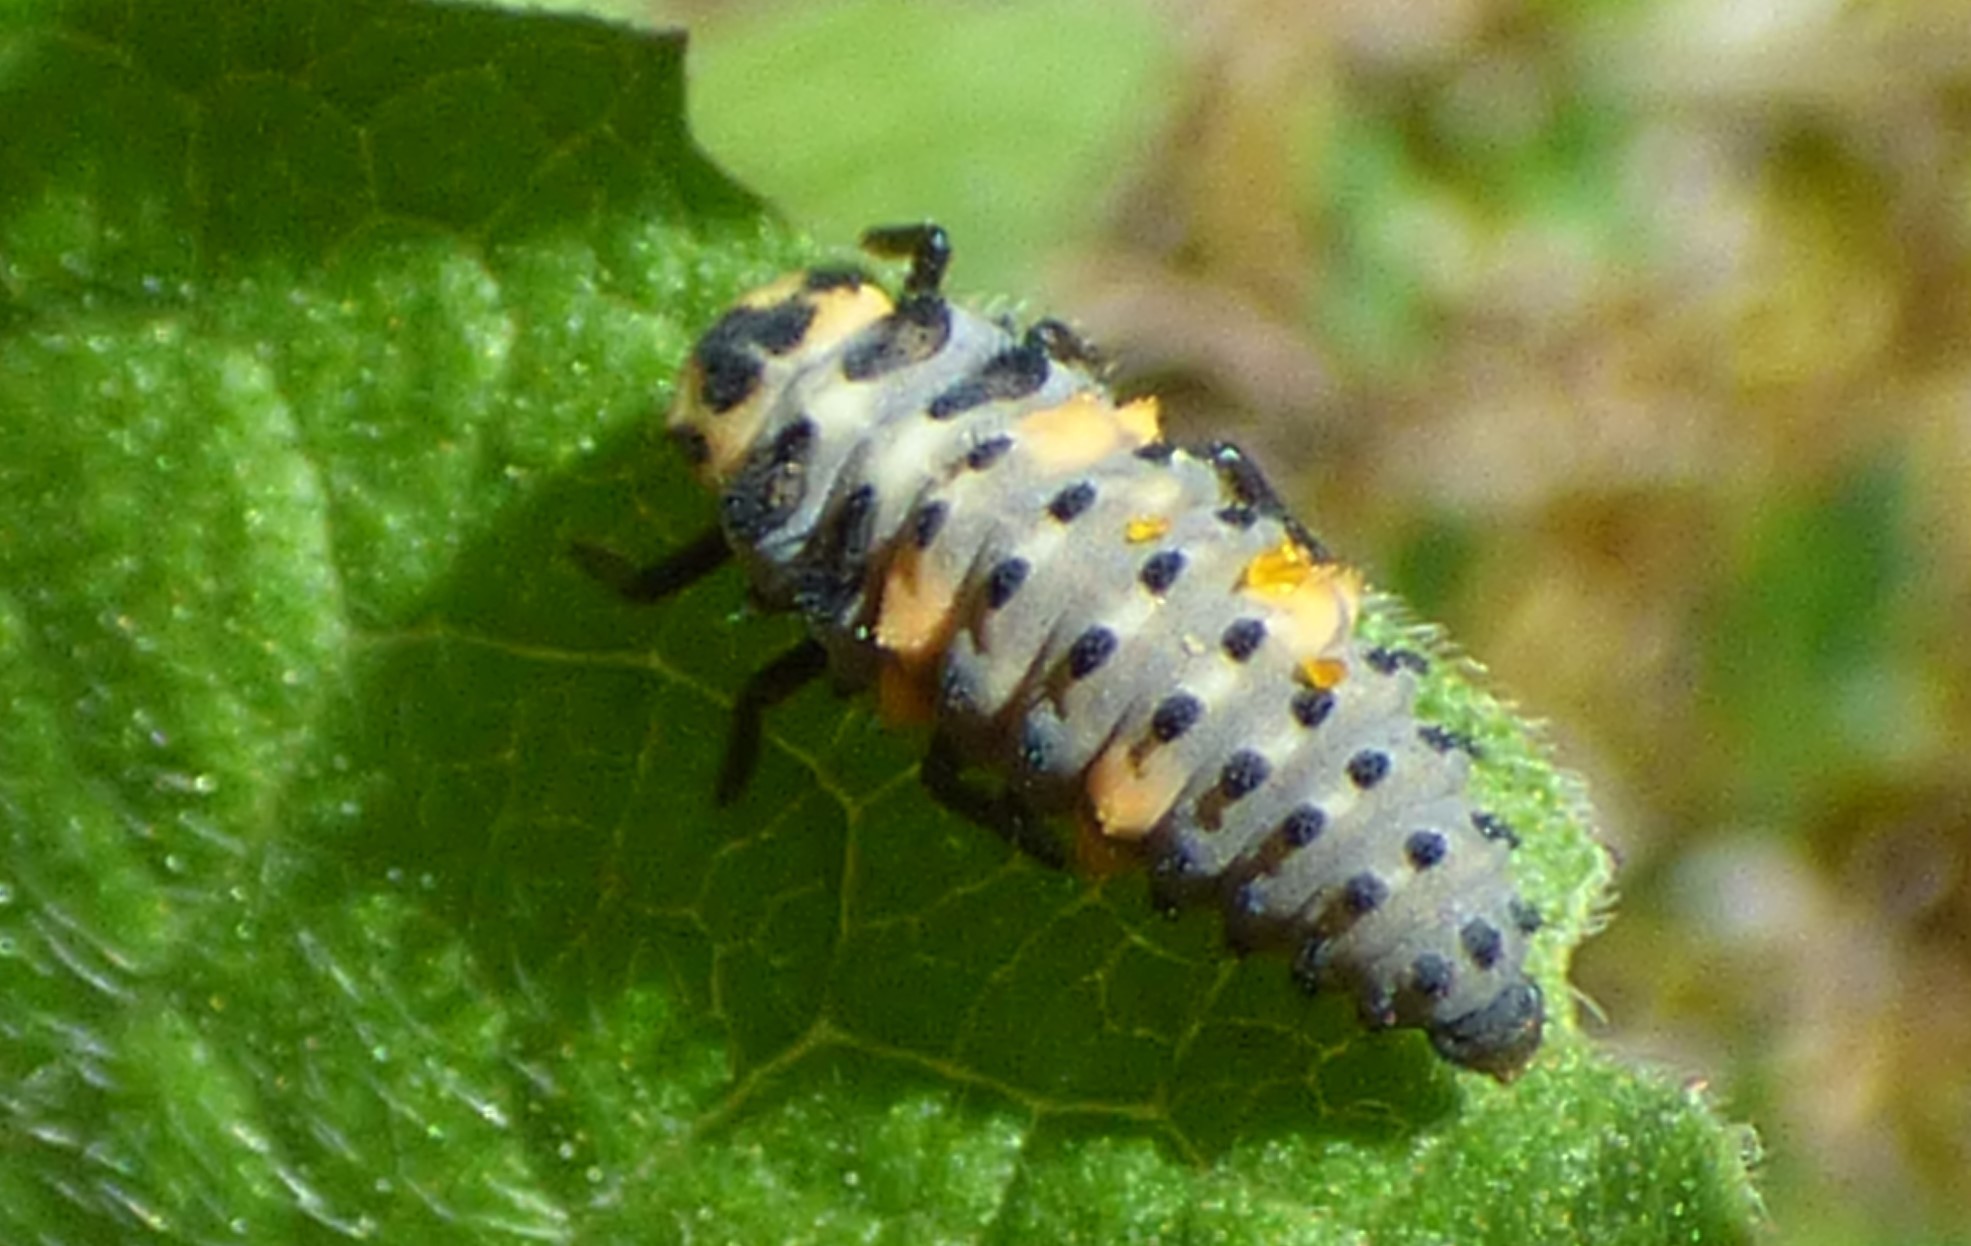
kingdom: Animalia
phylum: Arthropoda
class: Insecta
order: Coleoptera
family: Coccinellidae
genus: Coccinella
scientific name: Coccinella septempunctata
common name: Sevenspotted lady beetle
